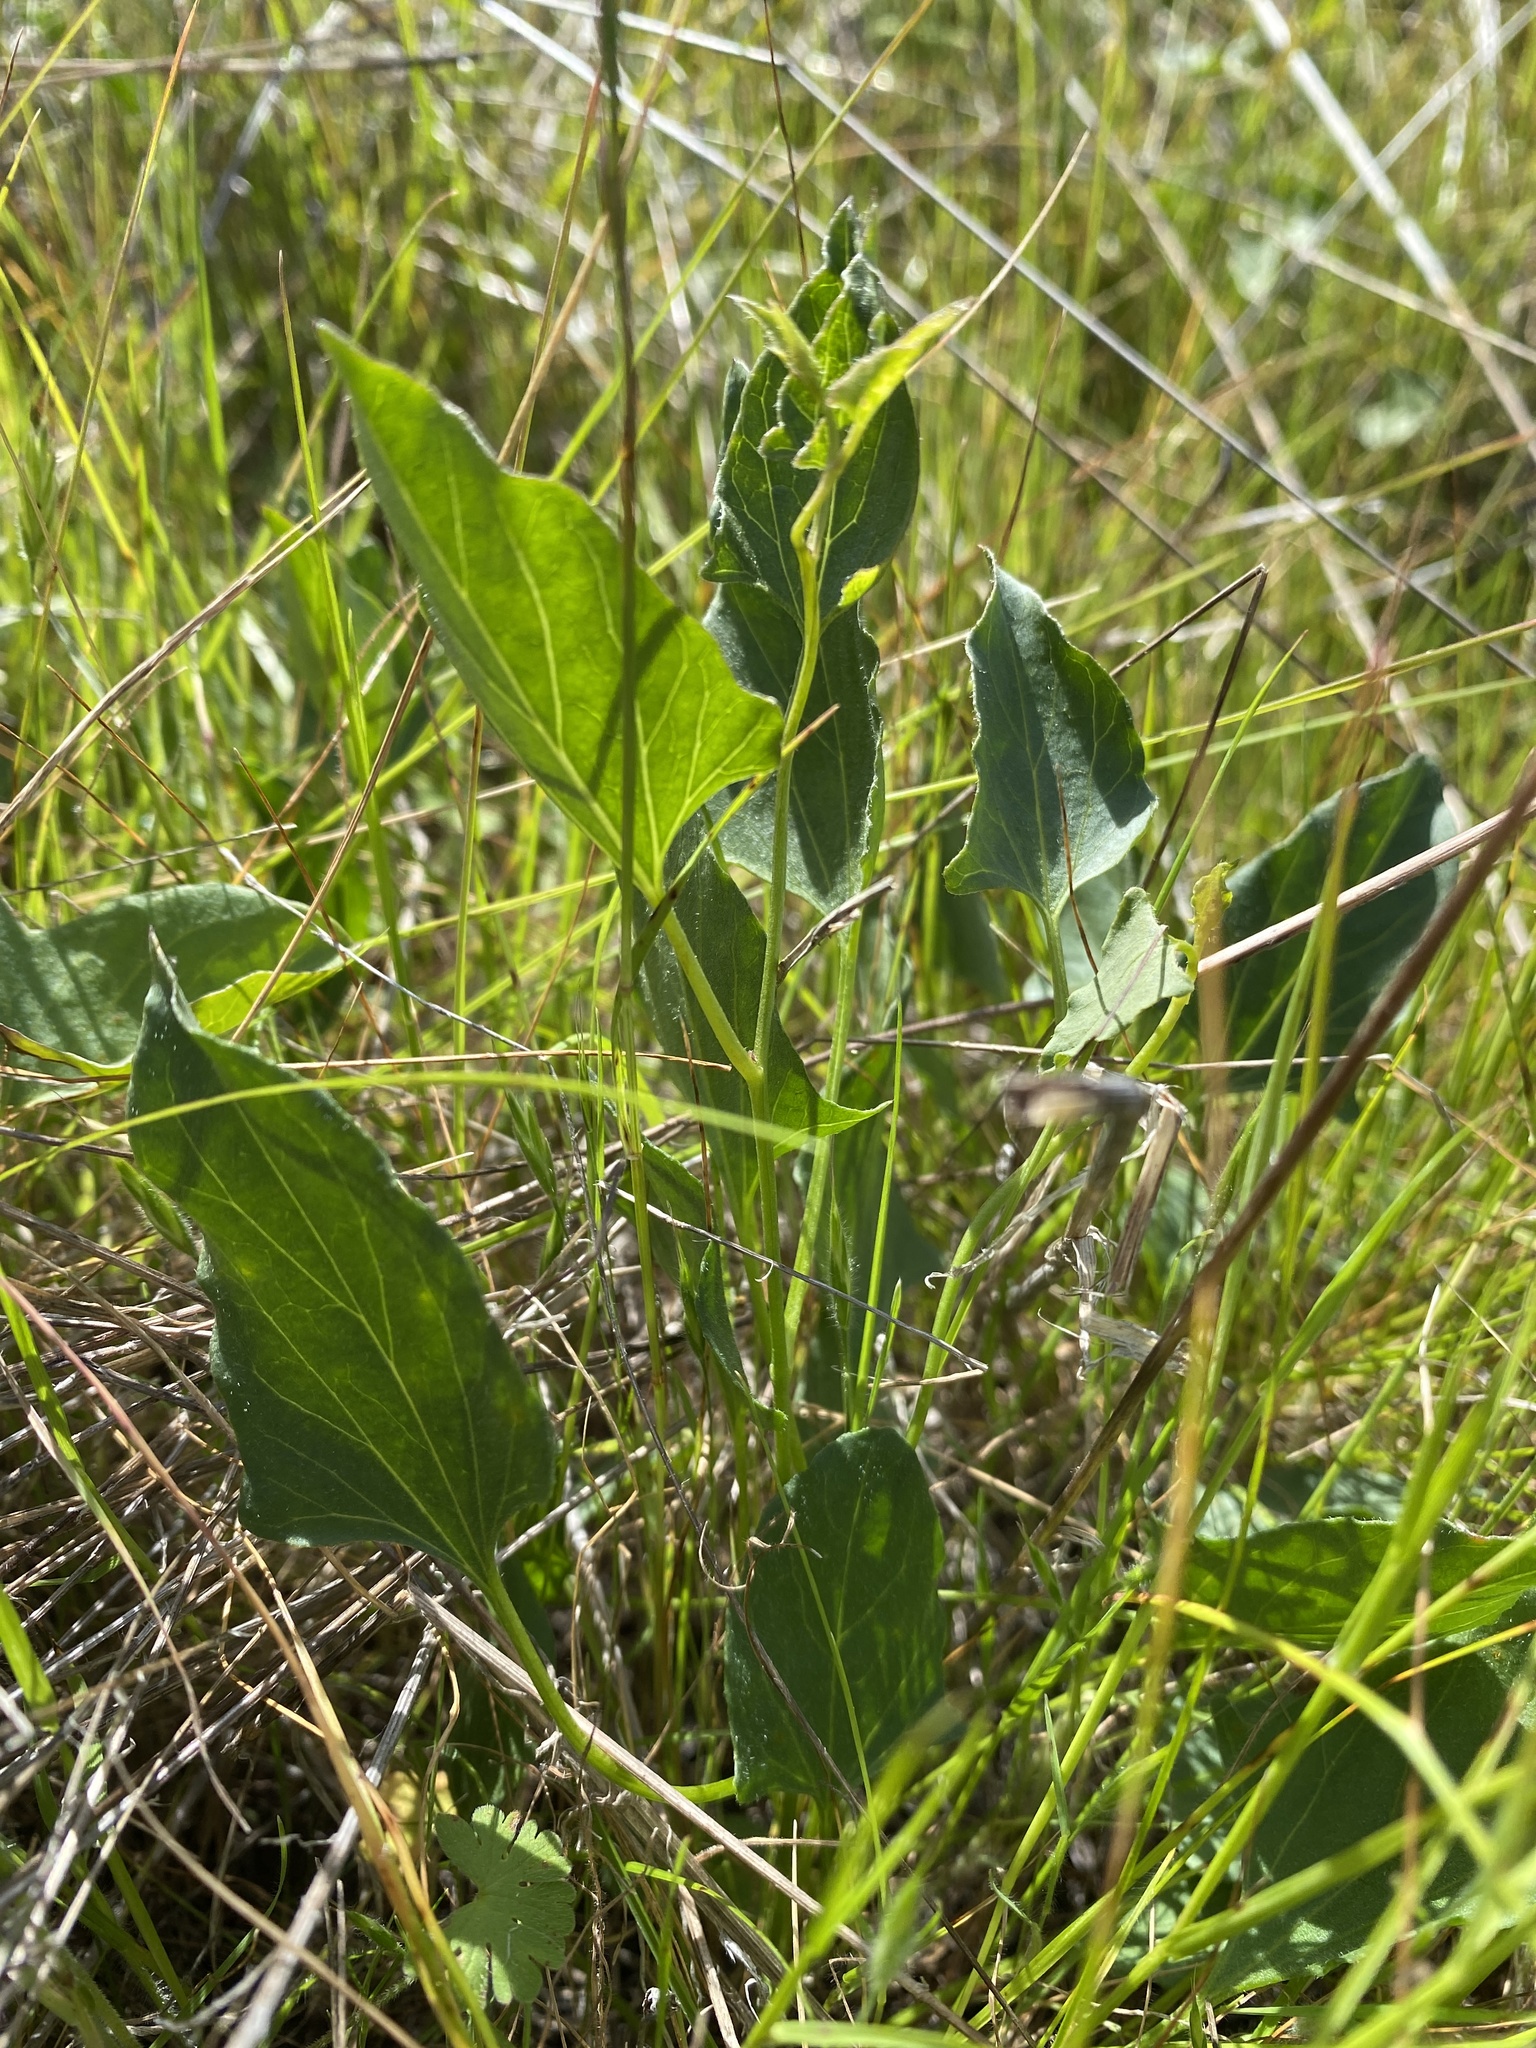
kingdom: Plantae
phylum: Tracheophyta
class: Magnoliopsida
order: Solanales
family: Convolvulaceae
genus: Calystegia
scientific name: Calystegia subacaulis
